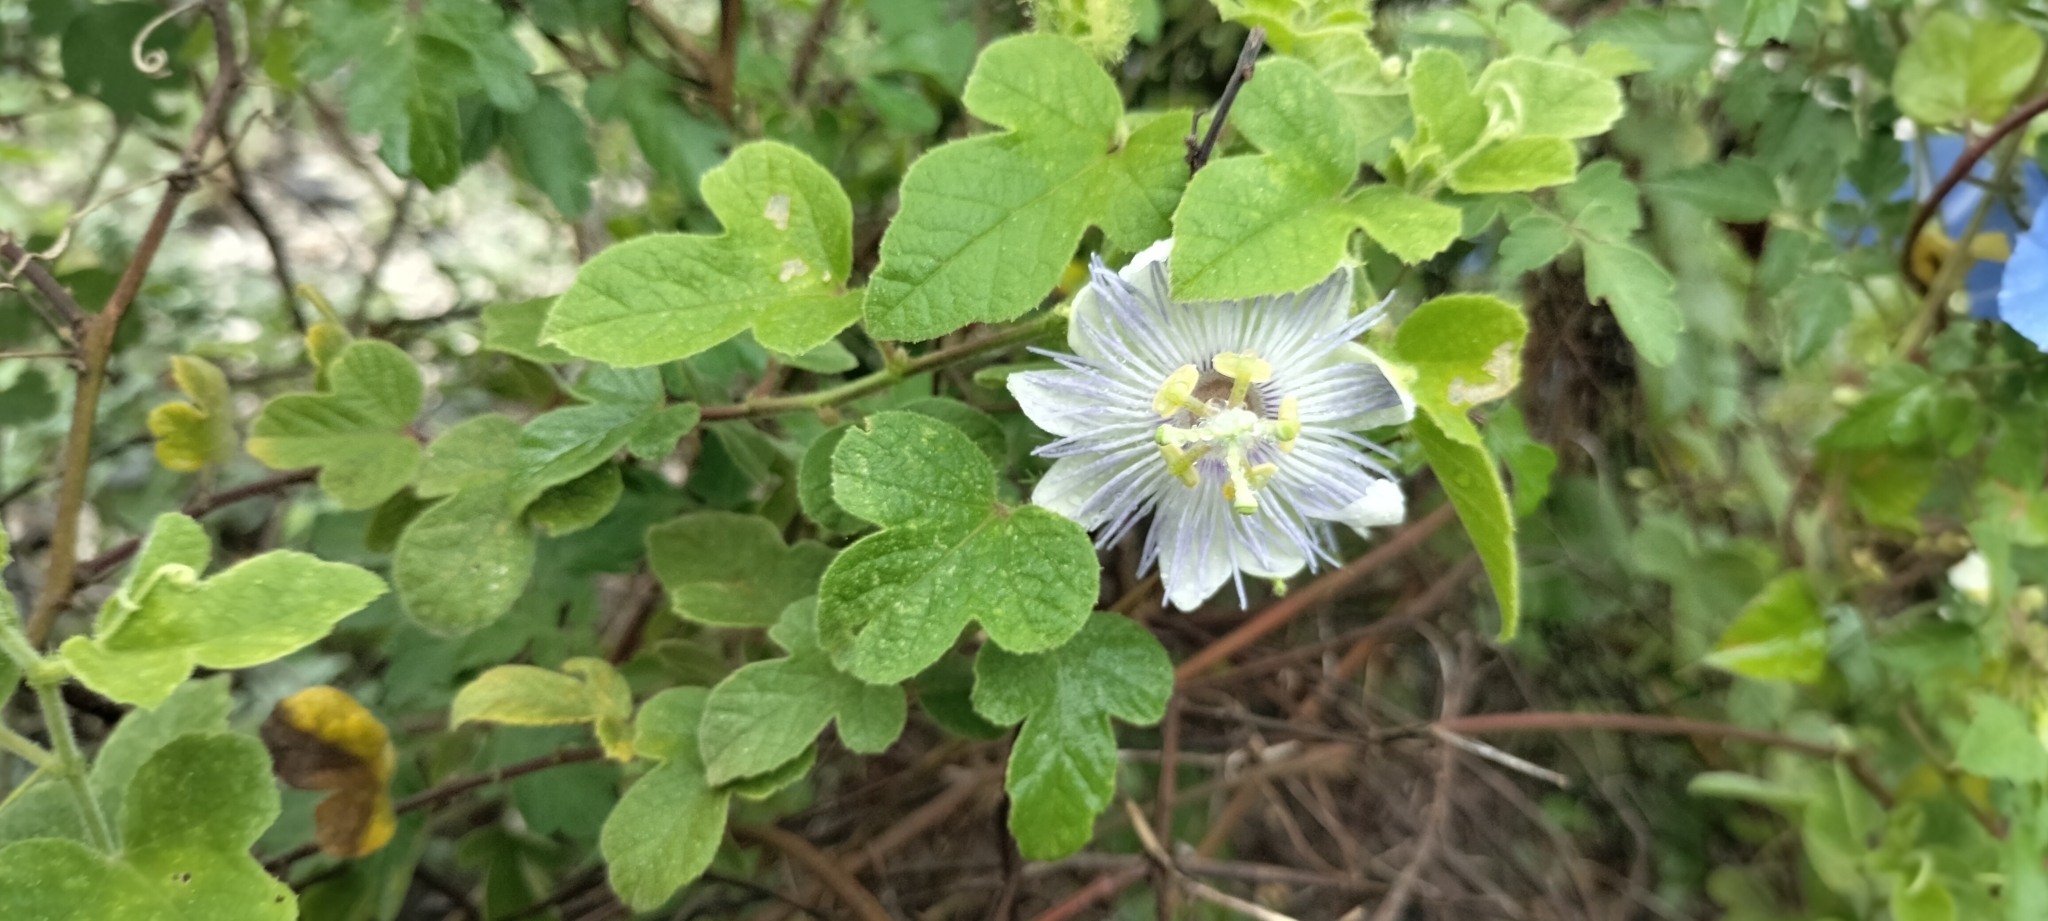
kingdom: Plantae
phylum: Tracheophyta
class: Magnoliopsida
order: Malpighiales
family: Passifloraceae
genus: Passiflora
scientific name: Passiflora foetida
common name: Fetid passionflower
